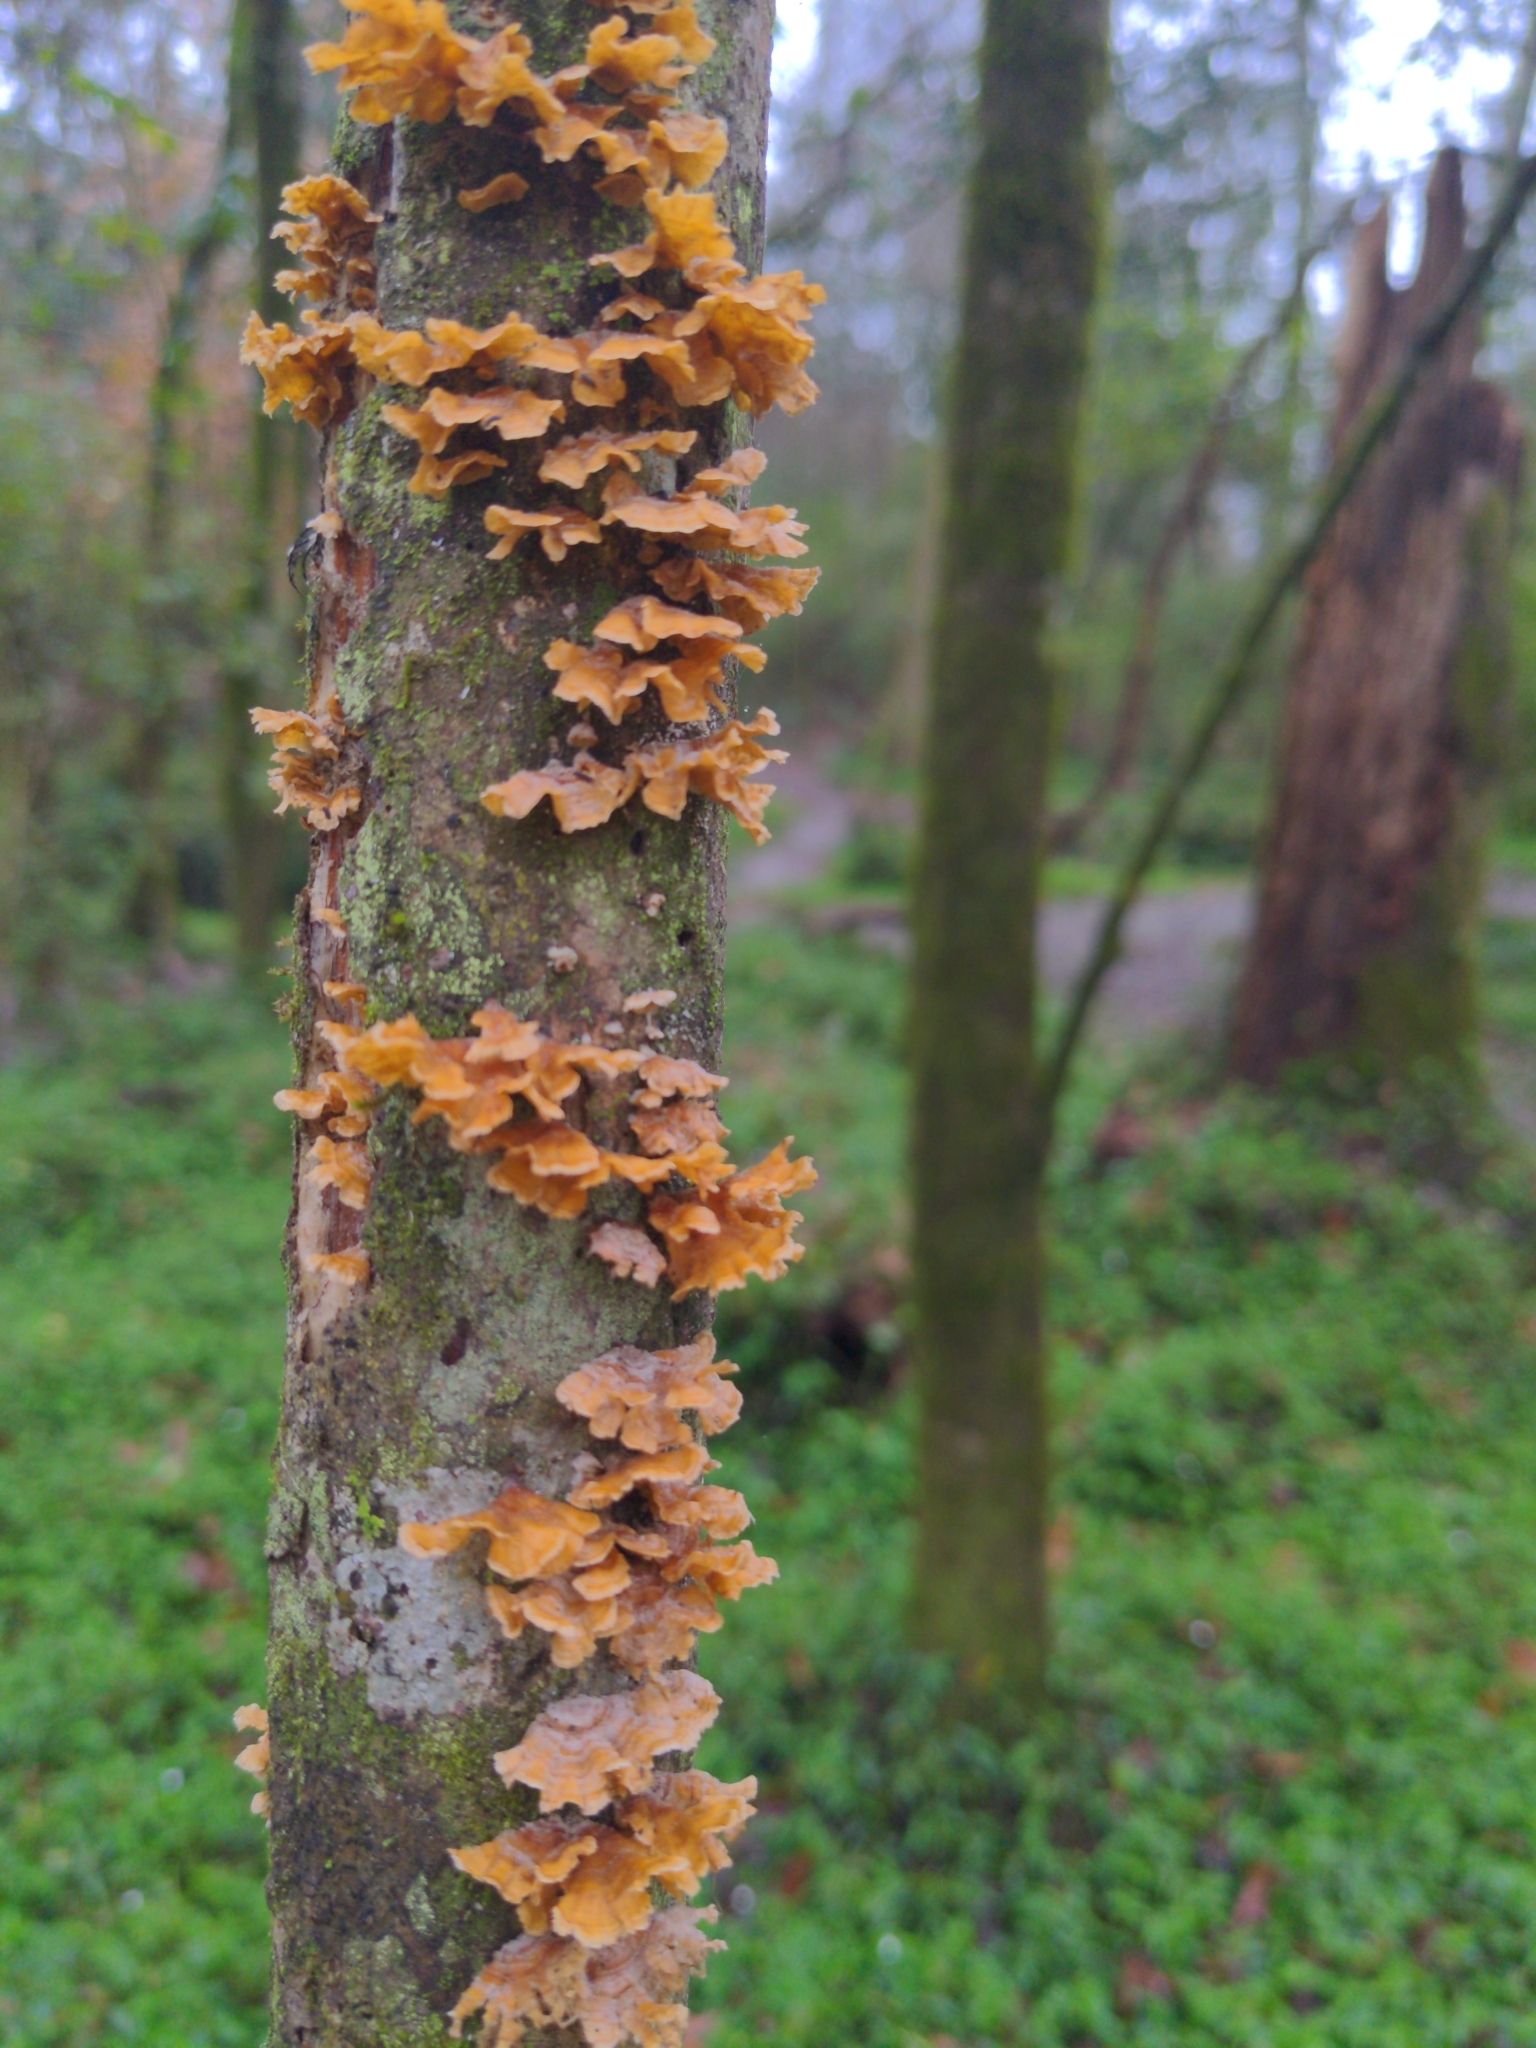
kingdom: Fungi
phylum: Basidiomycota
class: Agaricomycetes
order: Russulales
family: Stereaceae
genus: Stereum
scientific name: Stereum complicatum
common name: Crowded parchment
